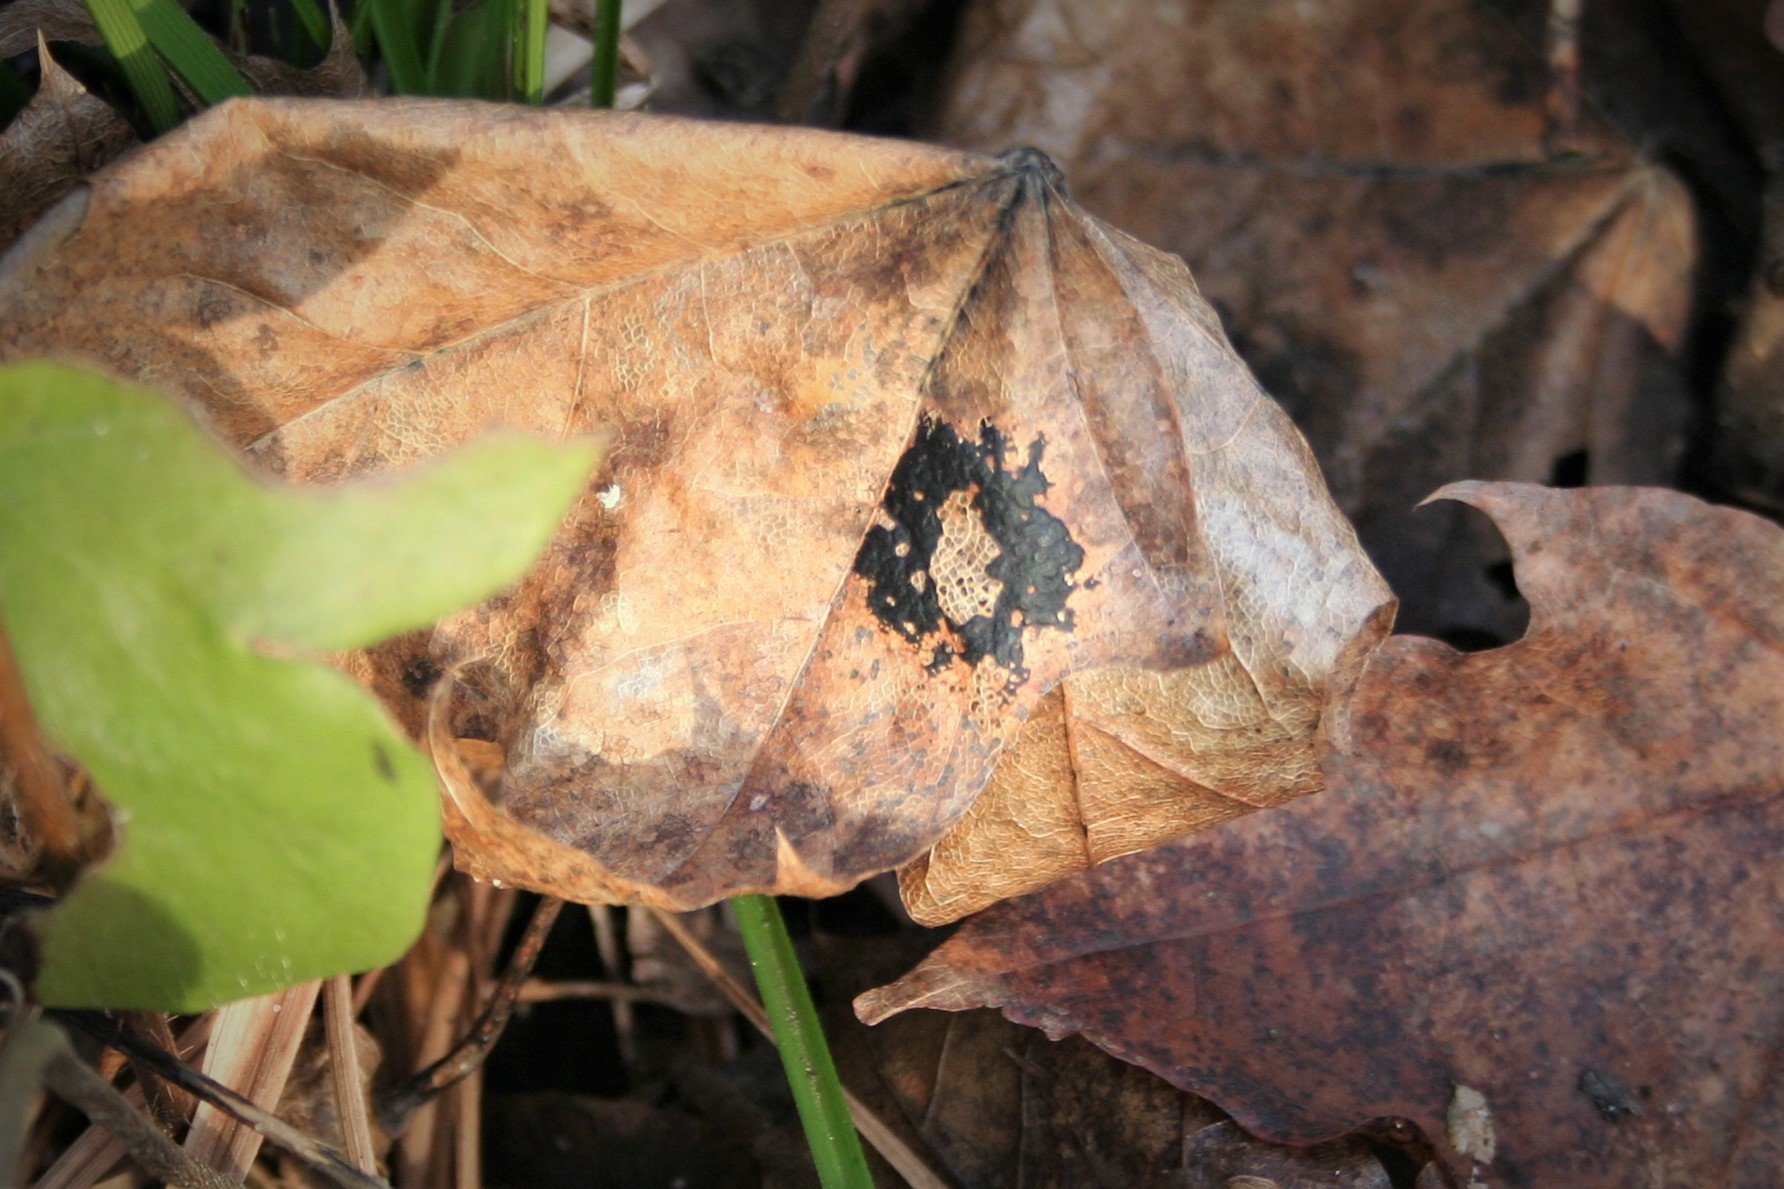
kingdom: Fungi
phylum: Ascomycota
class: Leotiomycetes
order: Rhytismatales
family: Rhytismataceae
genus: Rhytisma
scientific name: Rhytisma acerinum
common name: European tar spot
